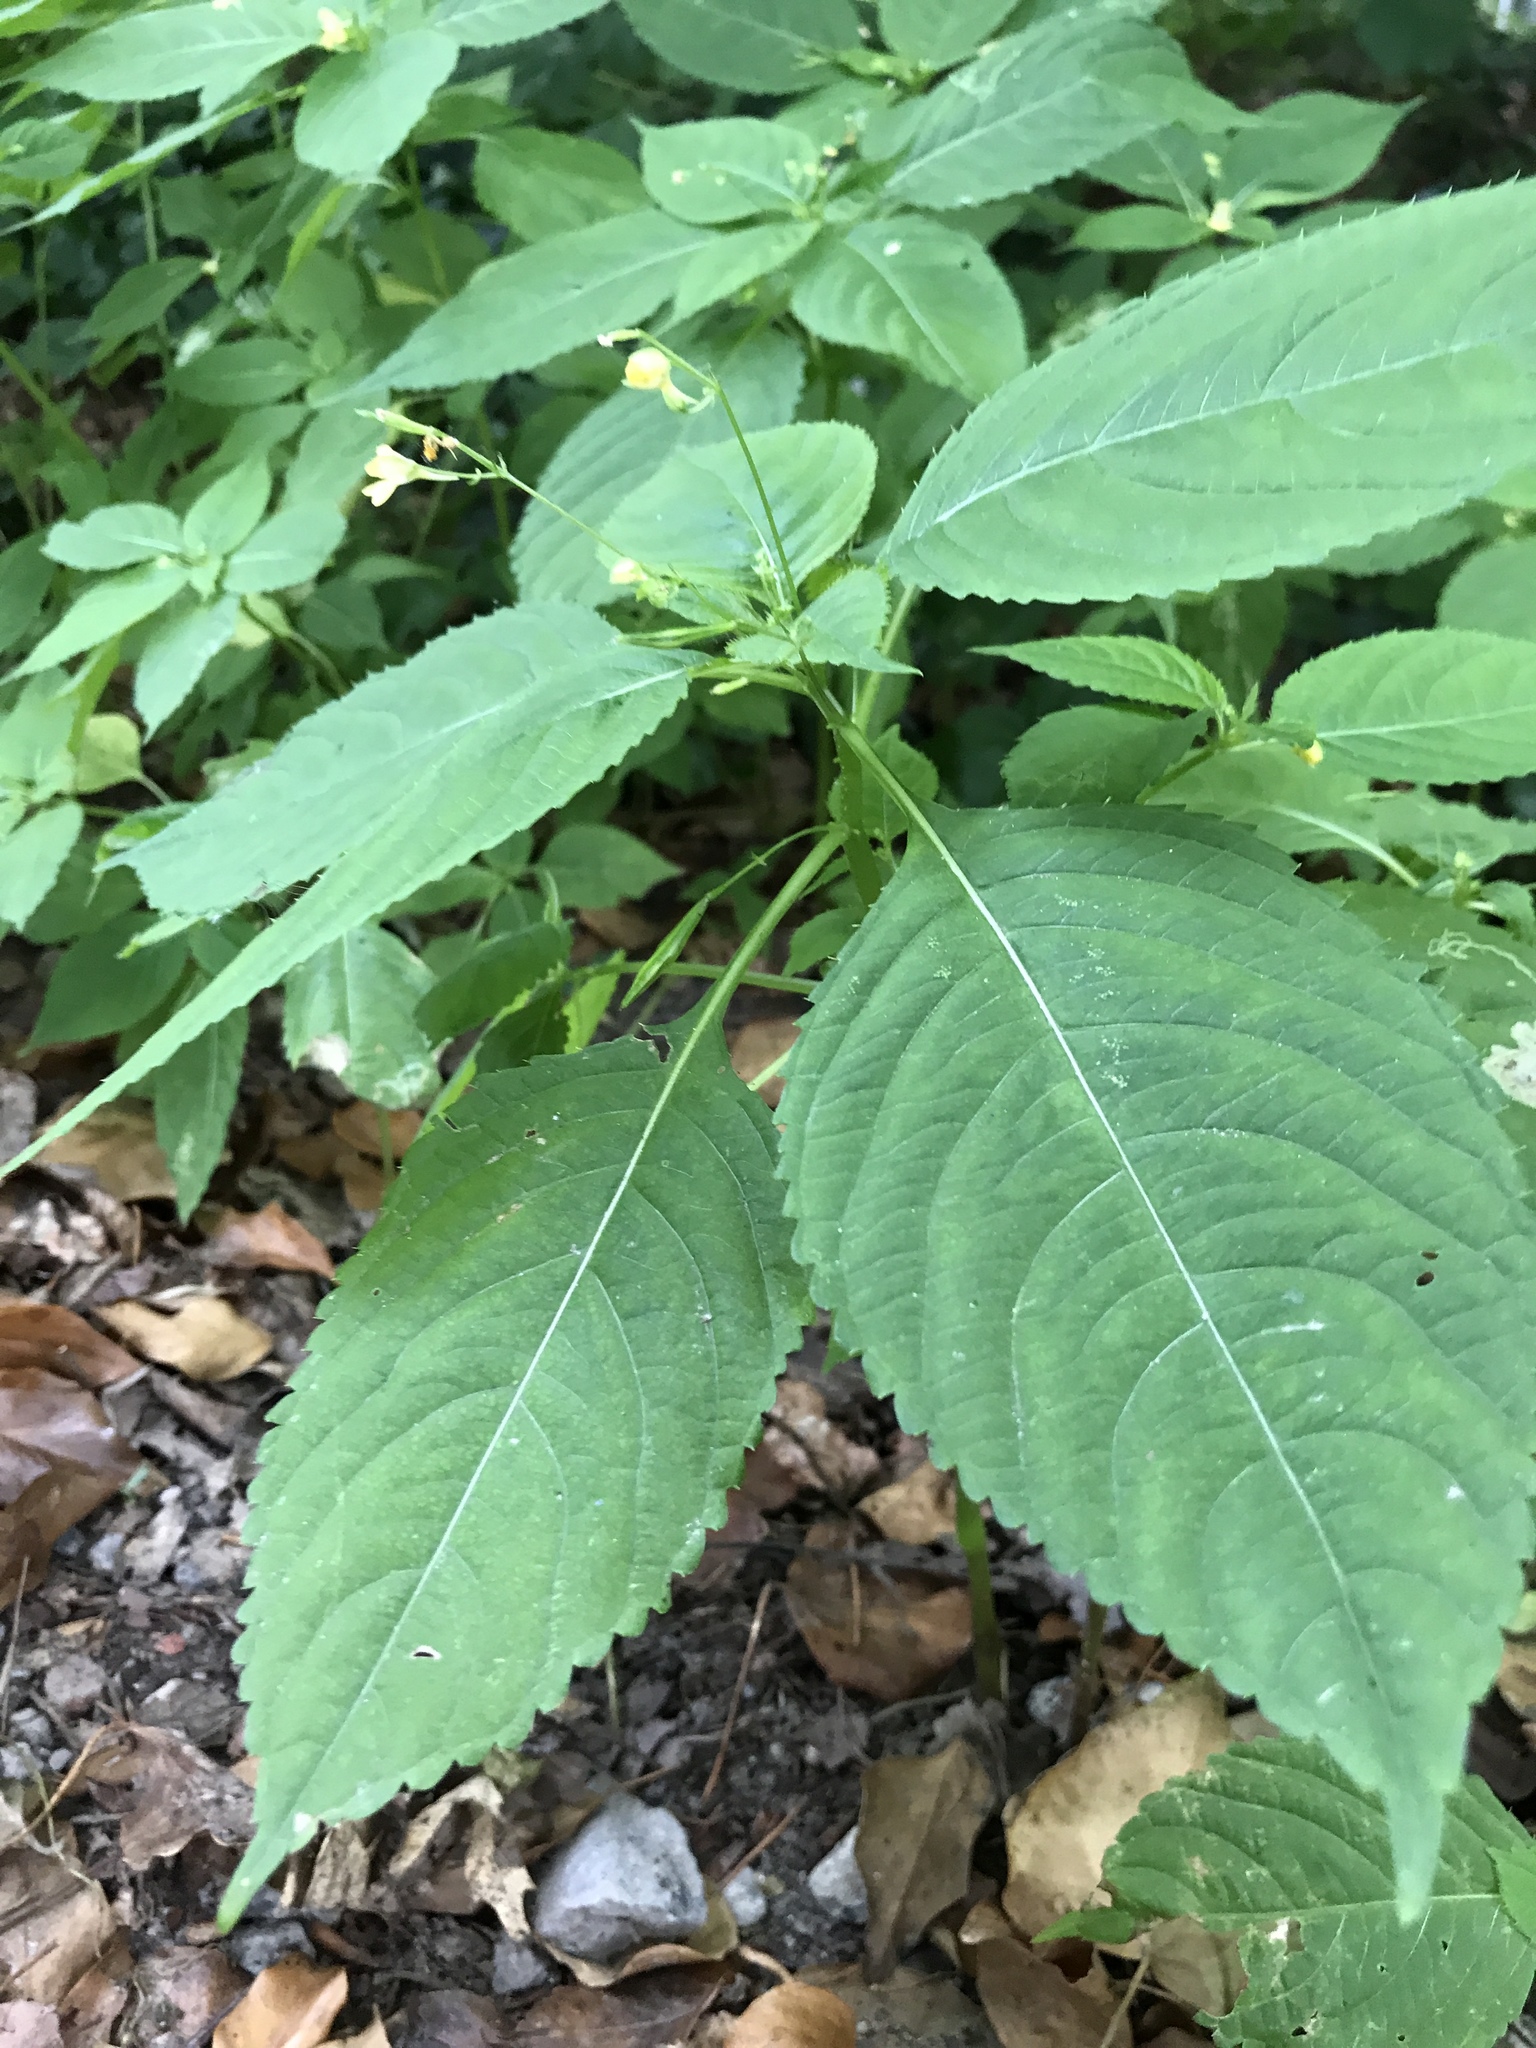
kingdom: Plantae
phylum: Tracheophyta
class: Magnoliopsida
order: Ericales
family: Balsaminaceae
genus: Impatiens
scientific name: Impatiens parviflora
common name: Small balsam
